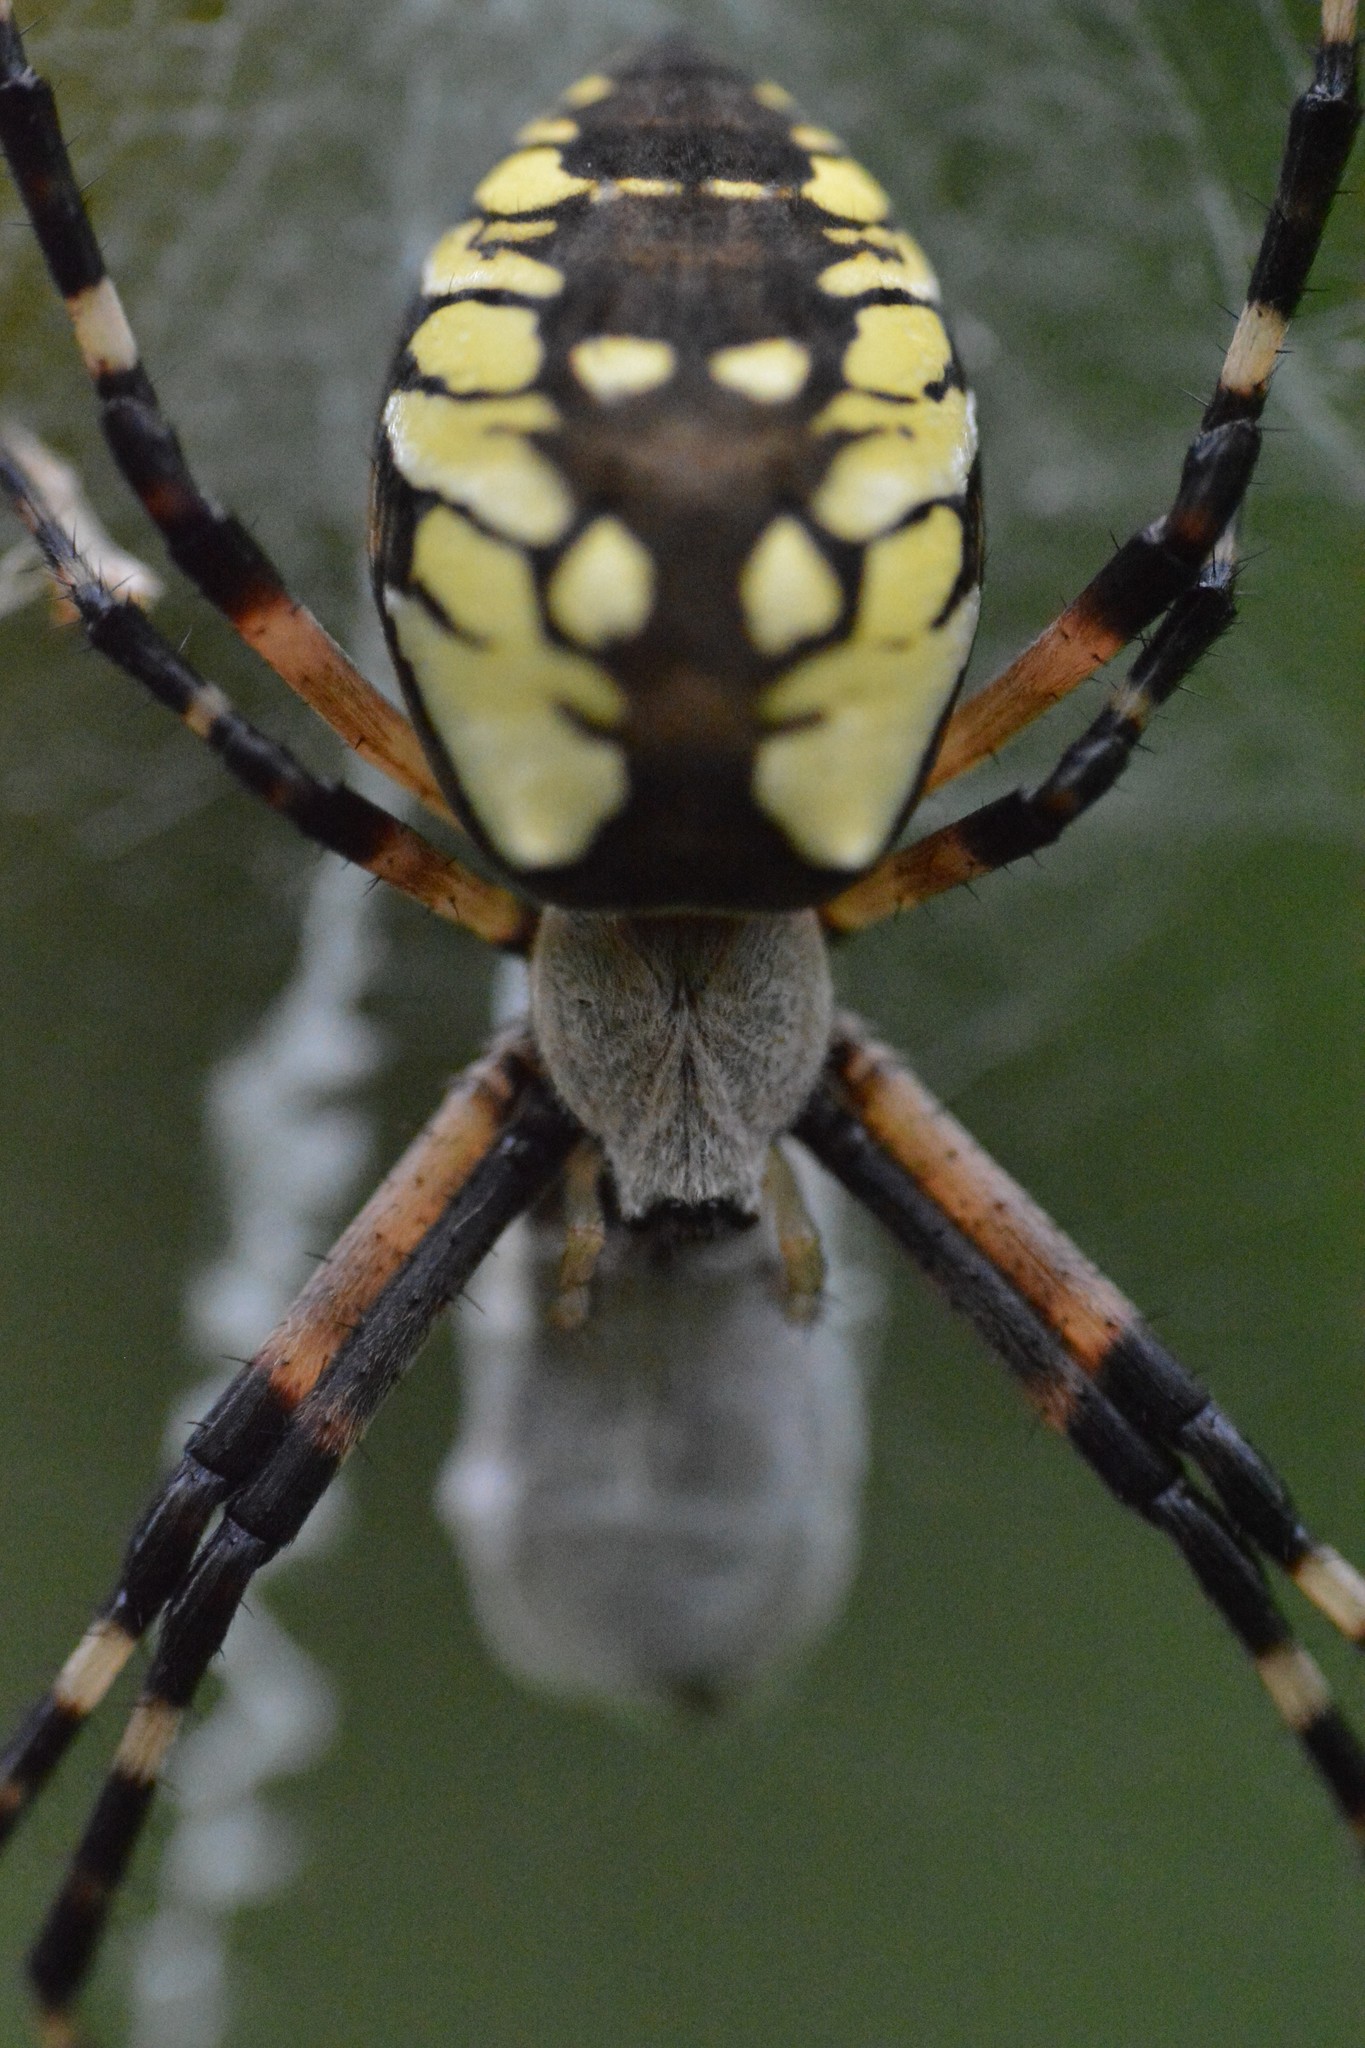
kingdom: Animalia
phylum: Arthropoda
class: Arachnida
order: Araneae
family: Araneidae
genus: Argiope
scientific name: Argiope aurantia
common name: Orb weavers
